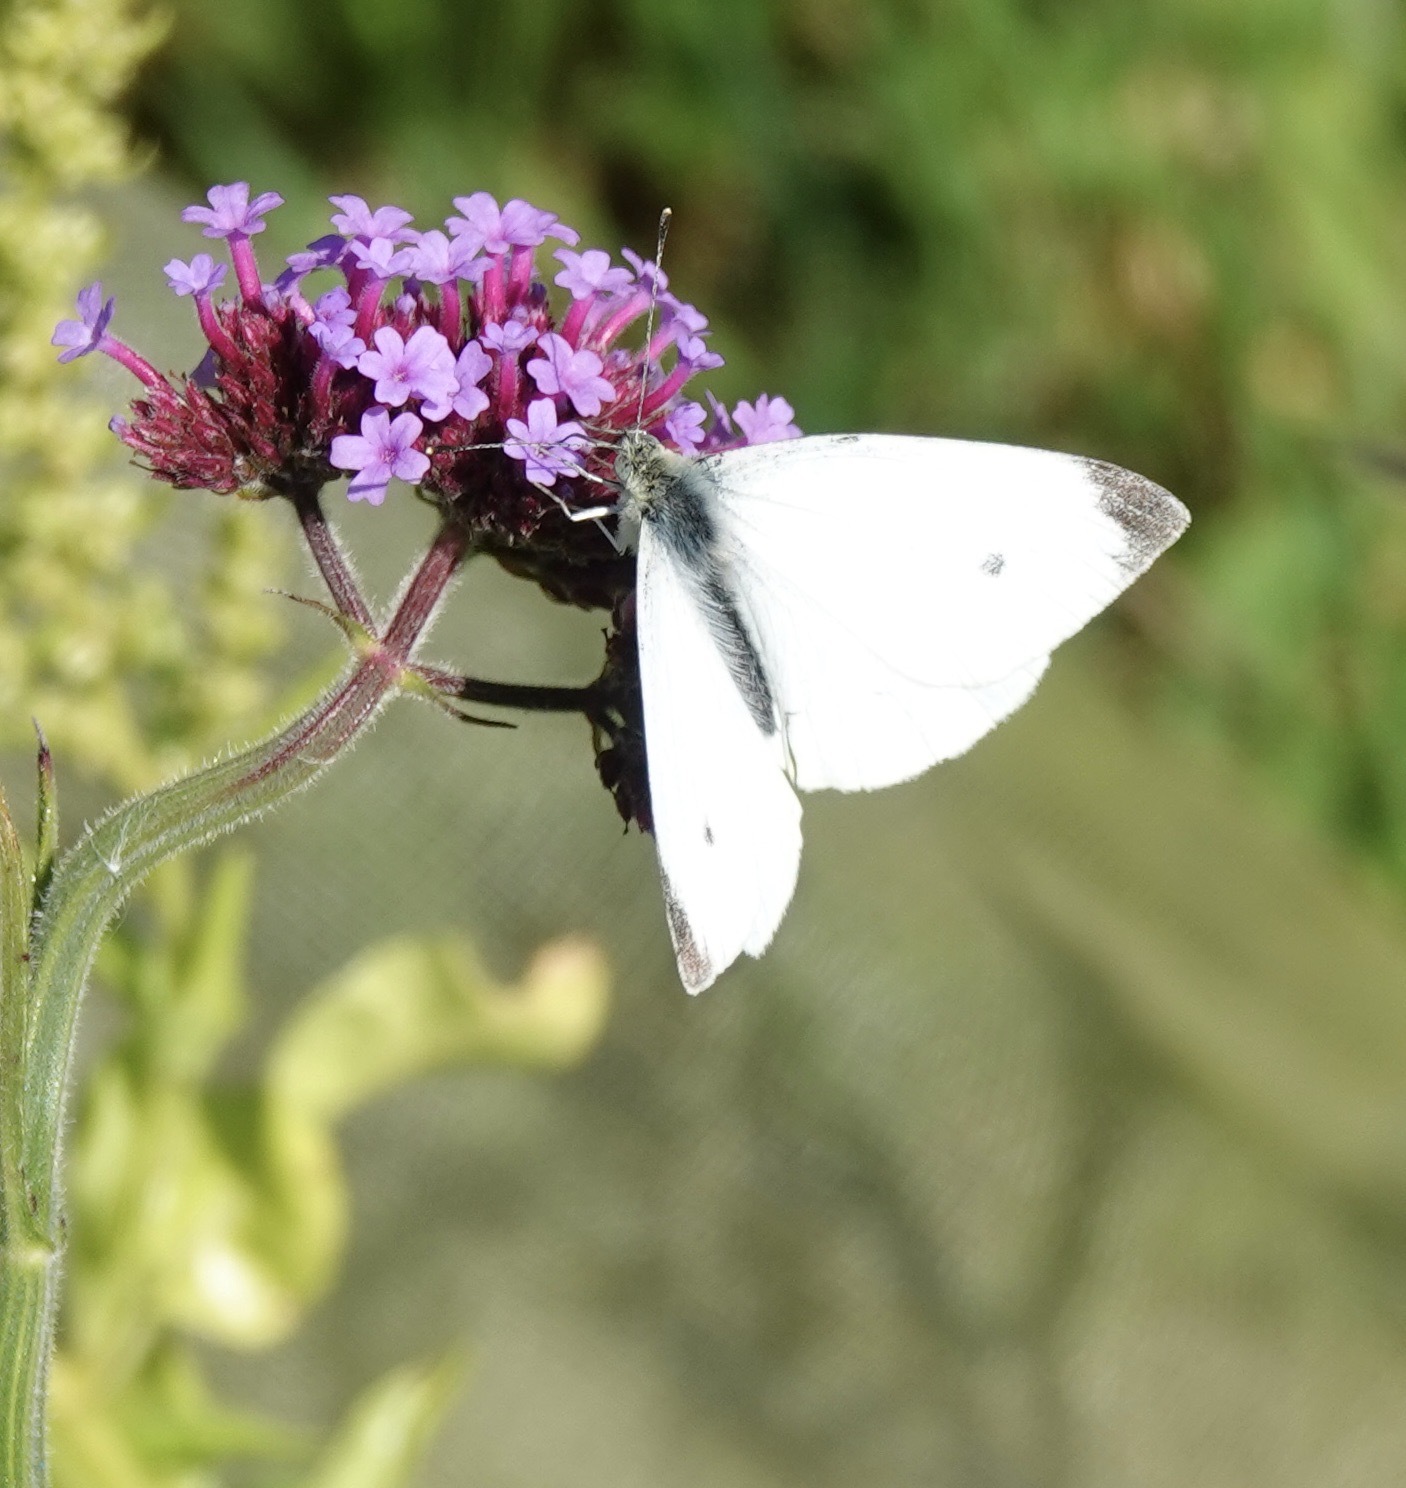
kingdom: Animalia
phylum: Arthropoda
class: Insecta
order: Lepidoptera
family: Pieridae
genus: Pieris
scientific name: Pieris rapae
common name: Small white
